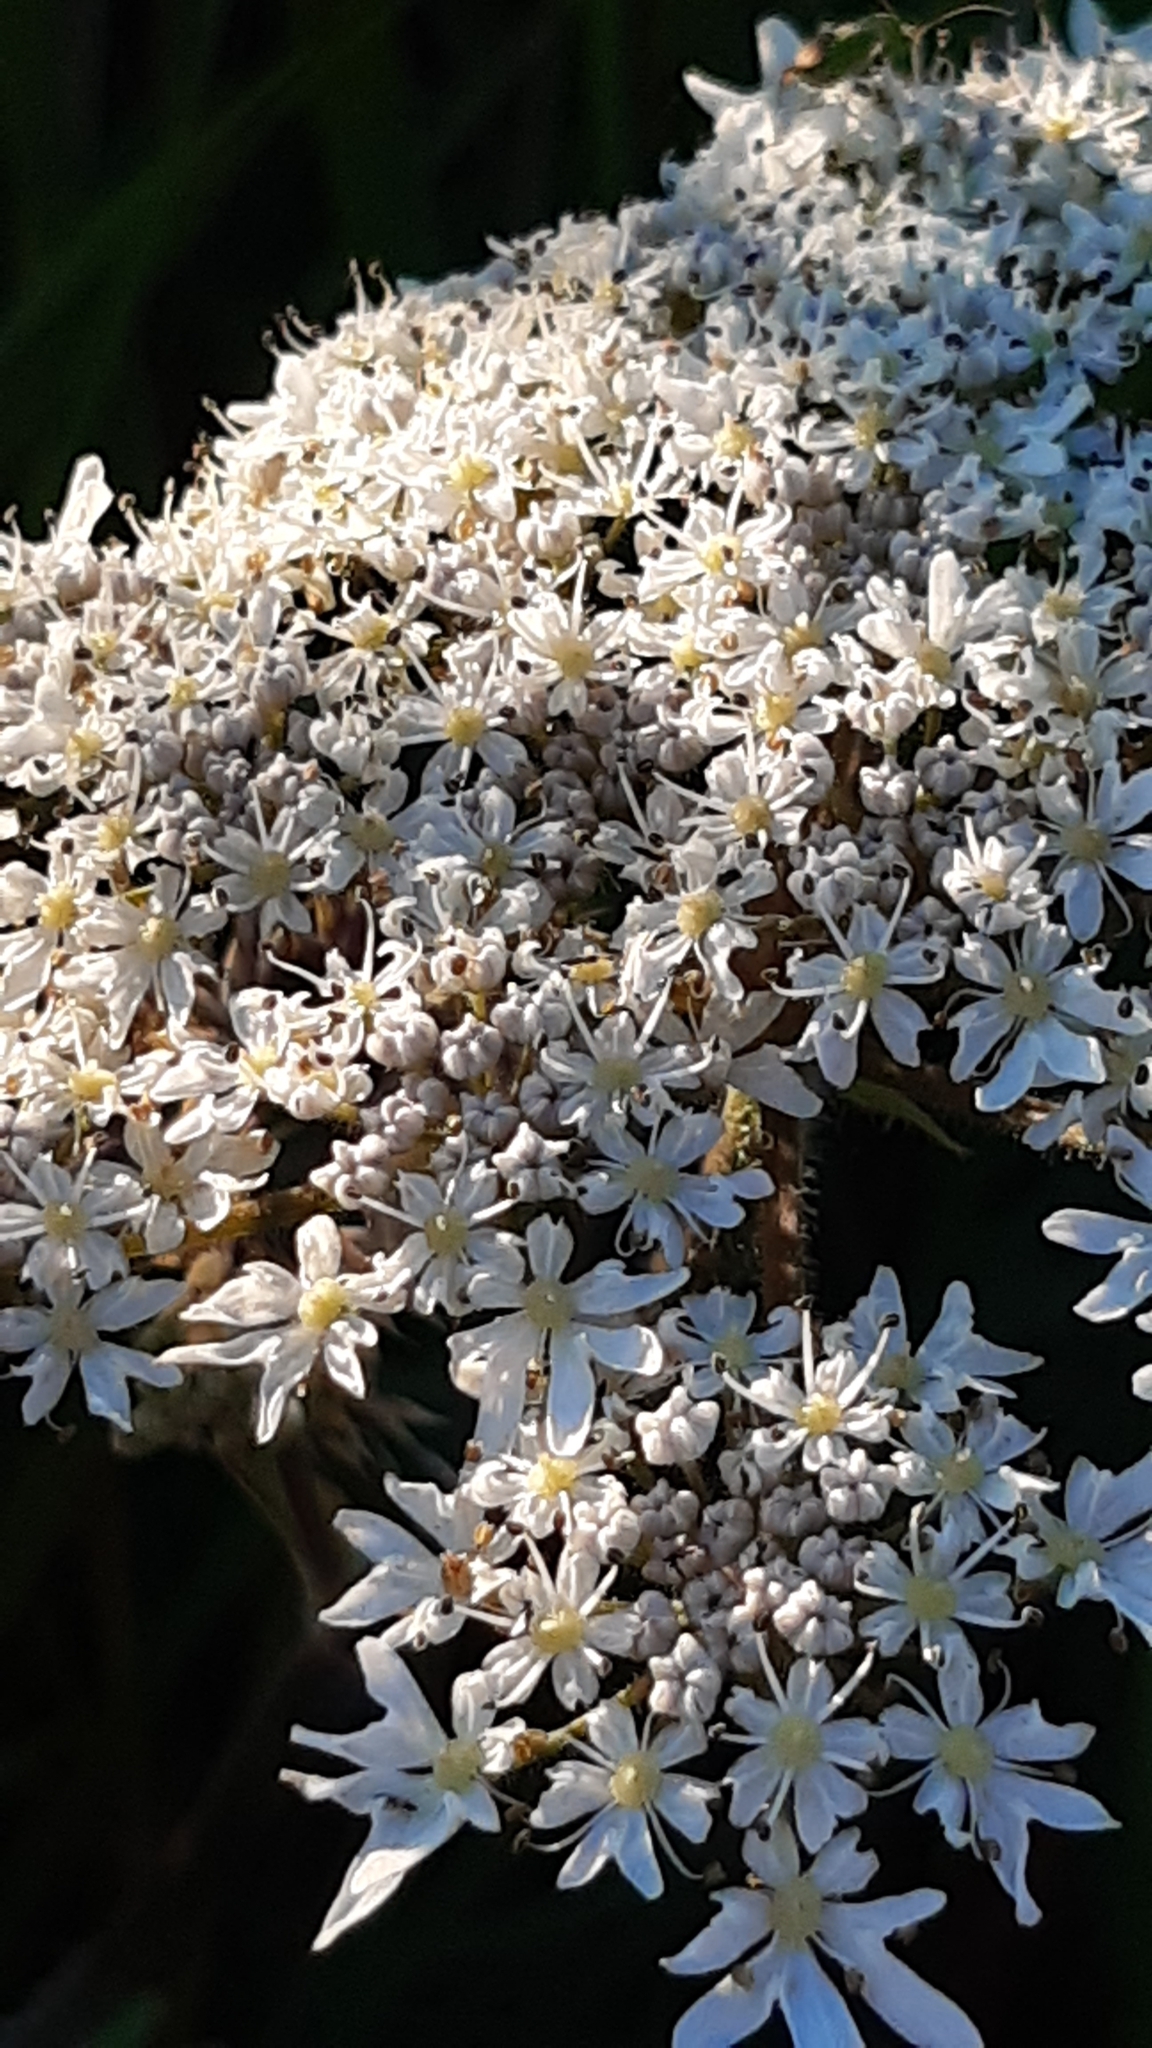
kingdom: Plantae
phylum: Tracheophyta
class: Magnoliopsida
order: Apiales
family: Apiaceae
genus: Heracleum
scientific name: Heracleum sphondylium
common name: Hogweed
